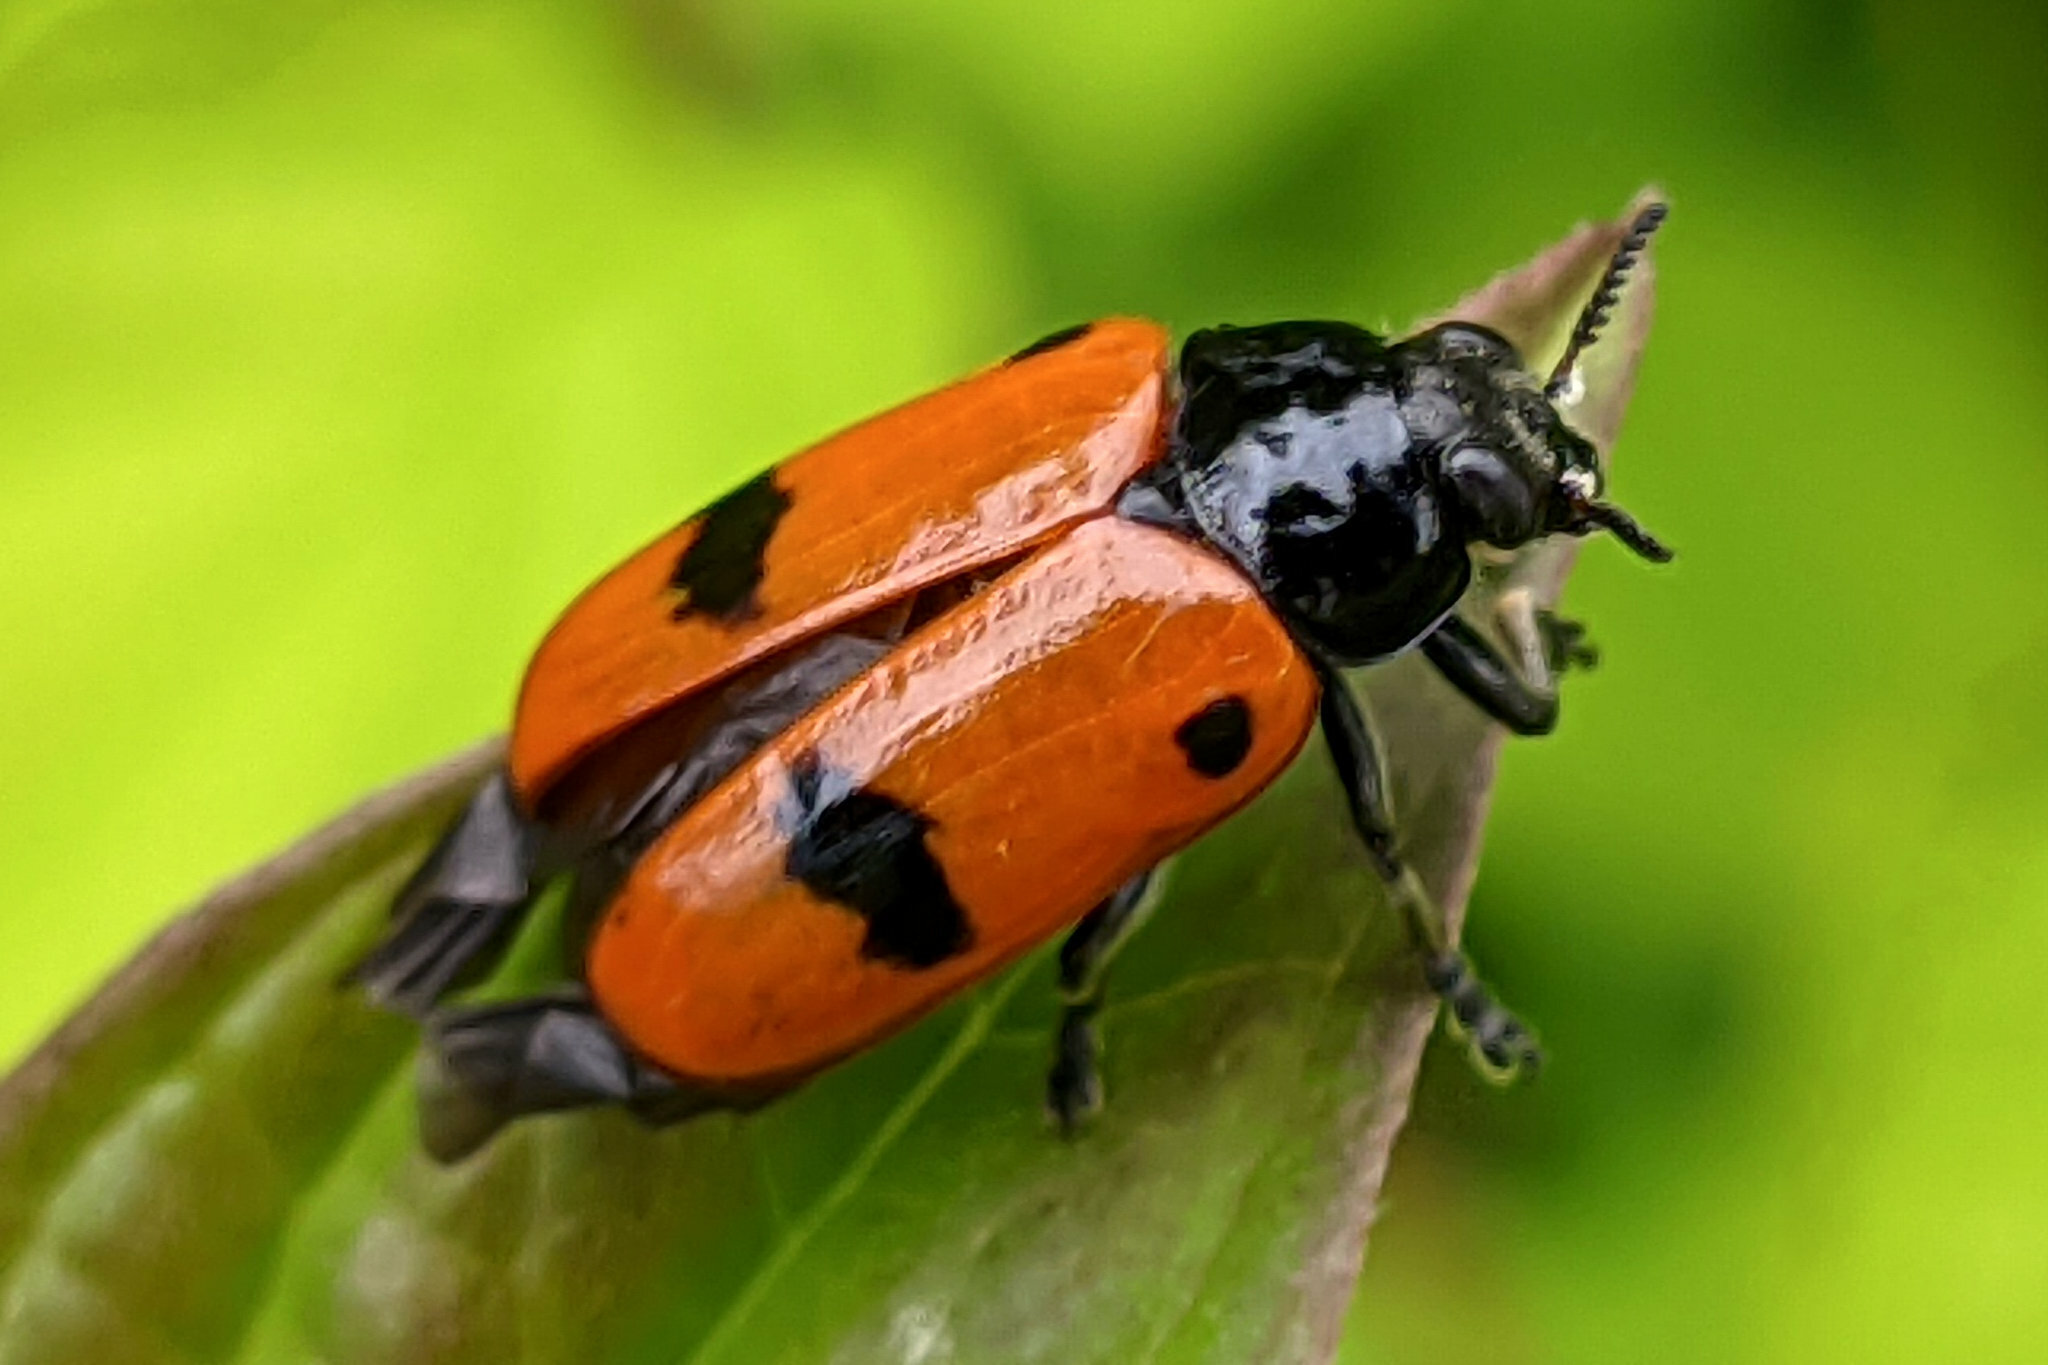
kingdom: Animalia
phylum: Arthropoda
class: Insecta
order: Coleoptera
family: Chrysomelidae
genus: Clytra
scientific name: Clytra quadripunctata
